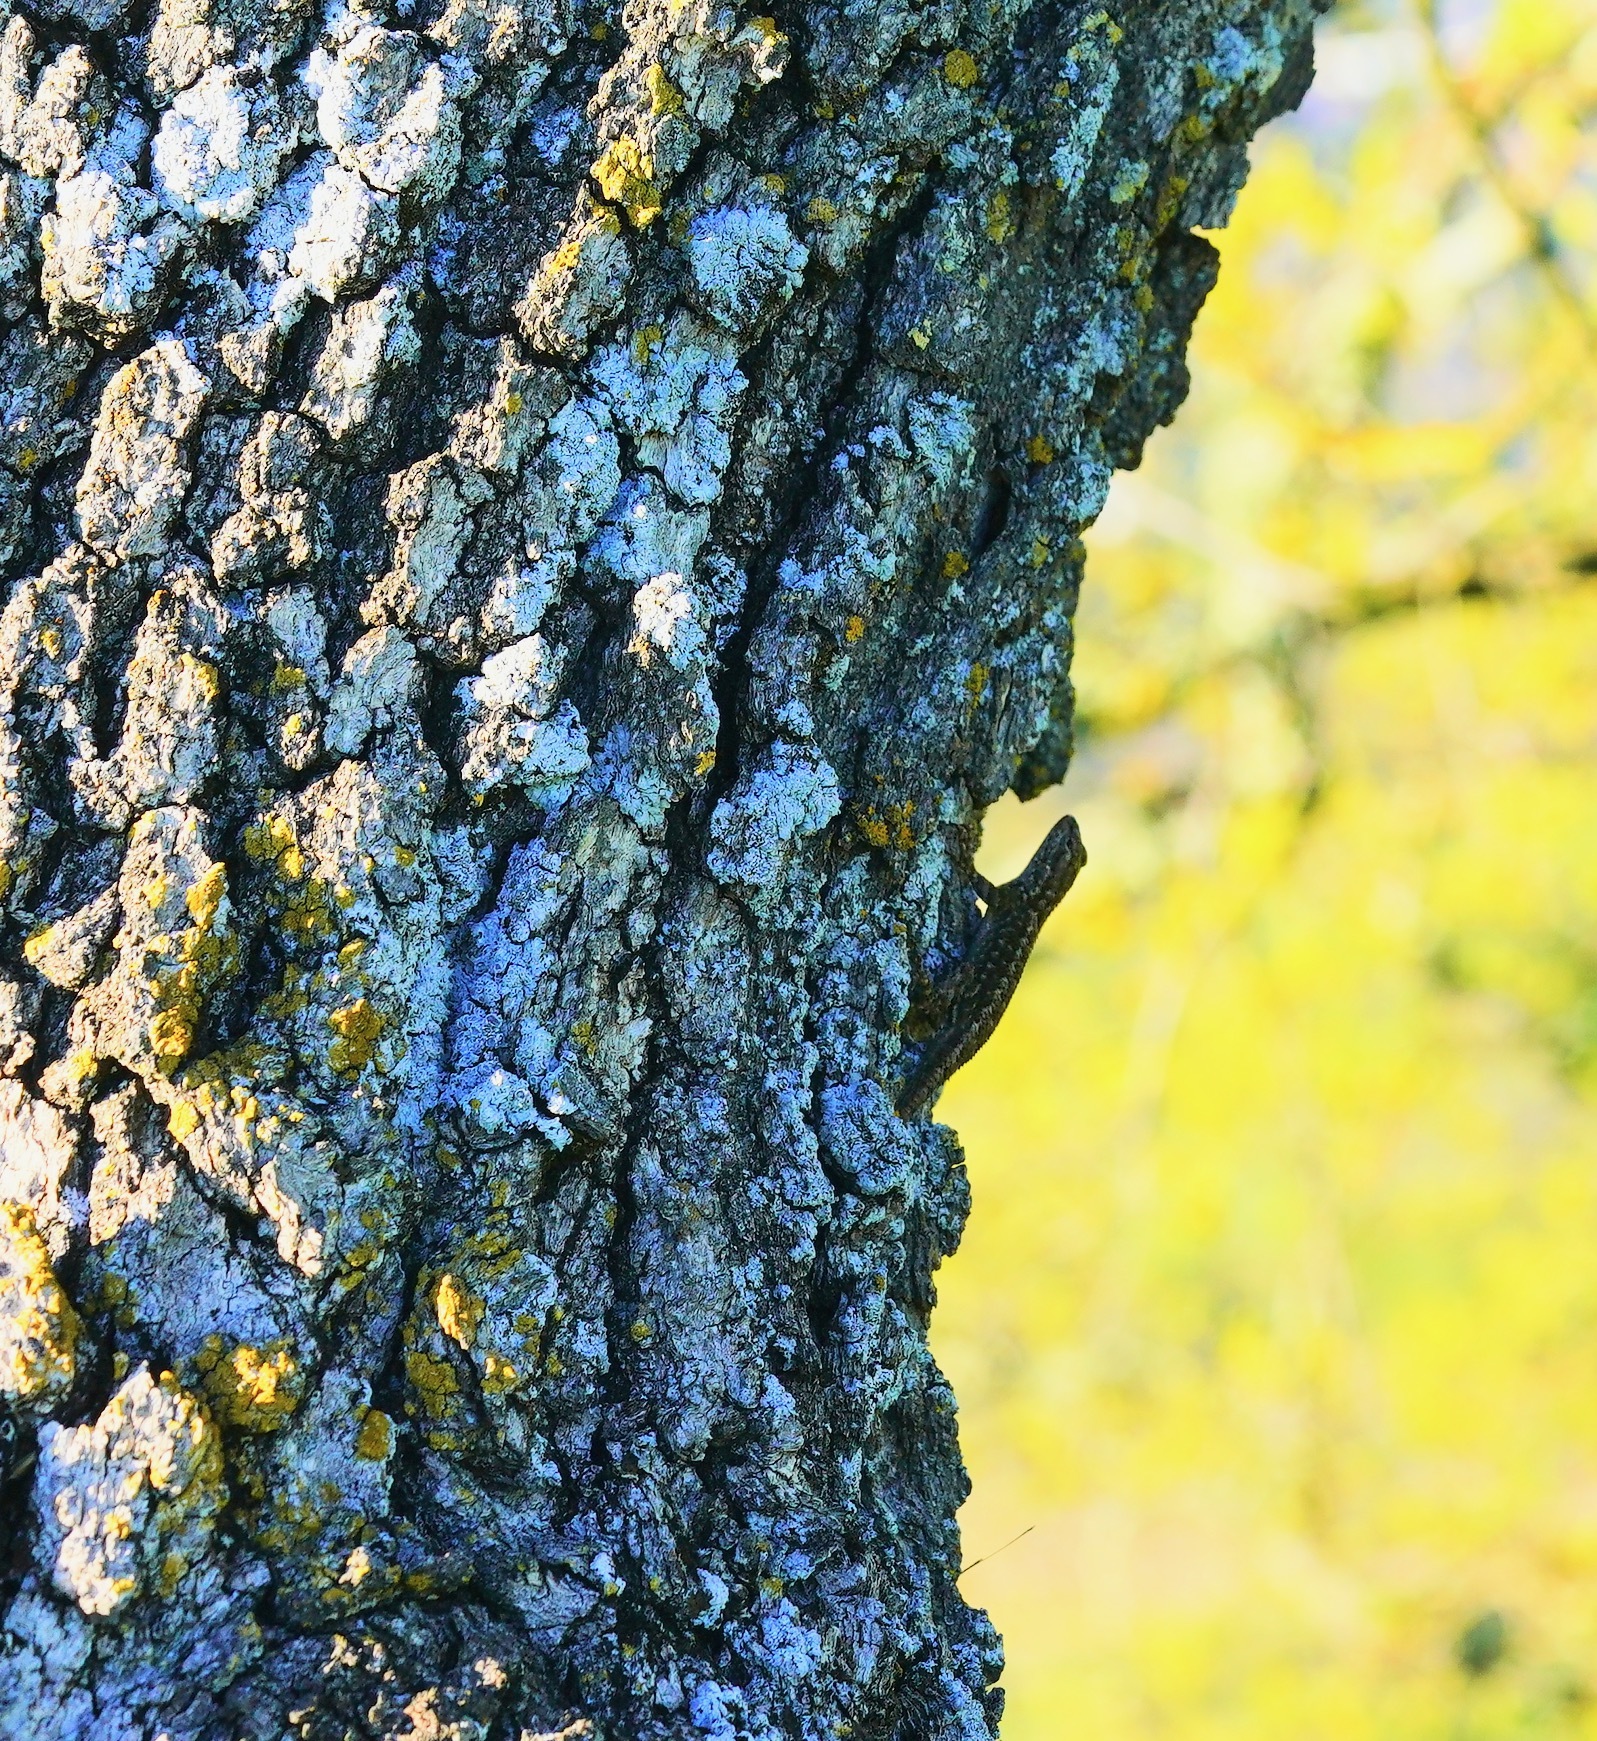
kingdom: Animalia
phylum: Chordata
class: Squamata
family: Phrynosomatidae
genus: Sceloporus
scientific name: Sceloporus occidentalis
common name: Western fence lizard
